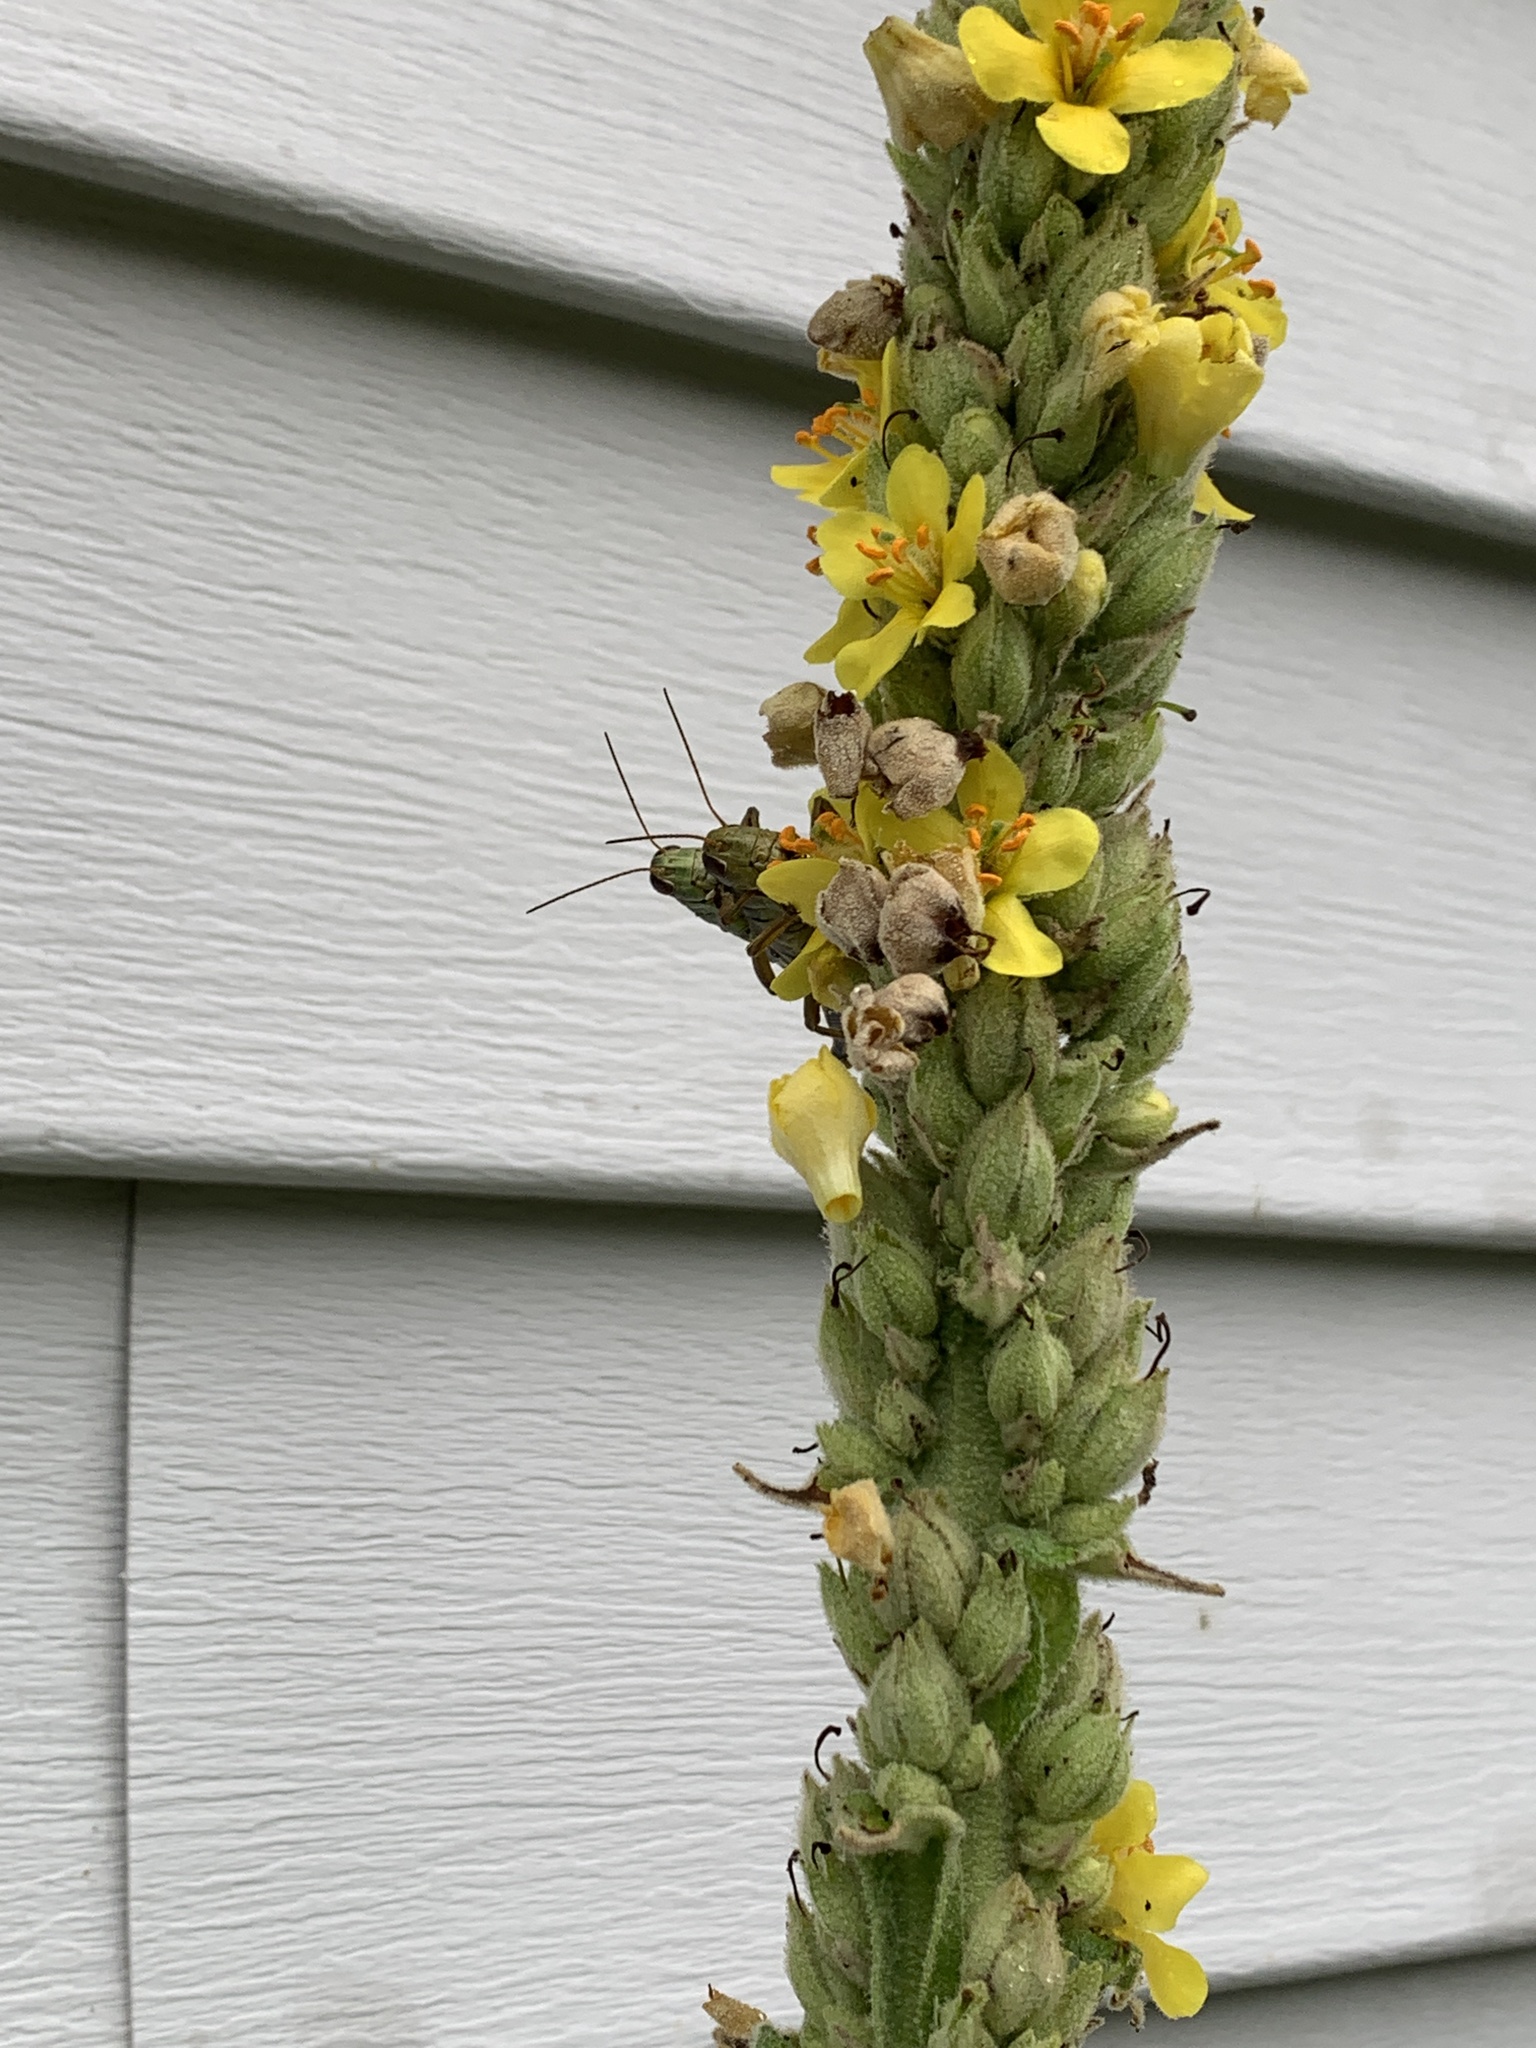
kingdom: Animalia
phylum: Arthropoda
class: Insecta
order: Orthoptera
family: Acrididae
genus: Melanoplus
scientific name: Melanoplus bivittatus
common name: Two-striped grasshopper
